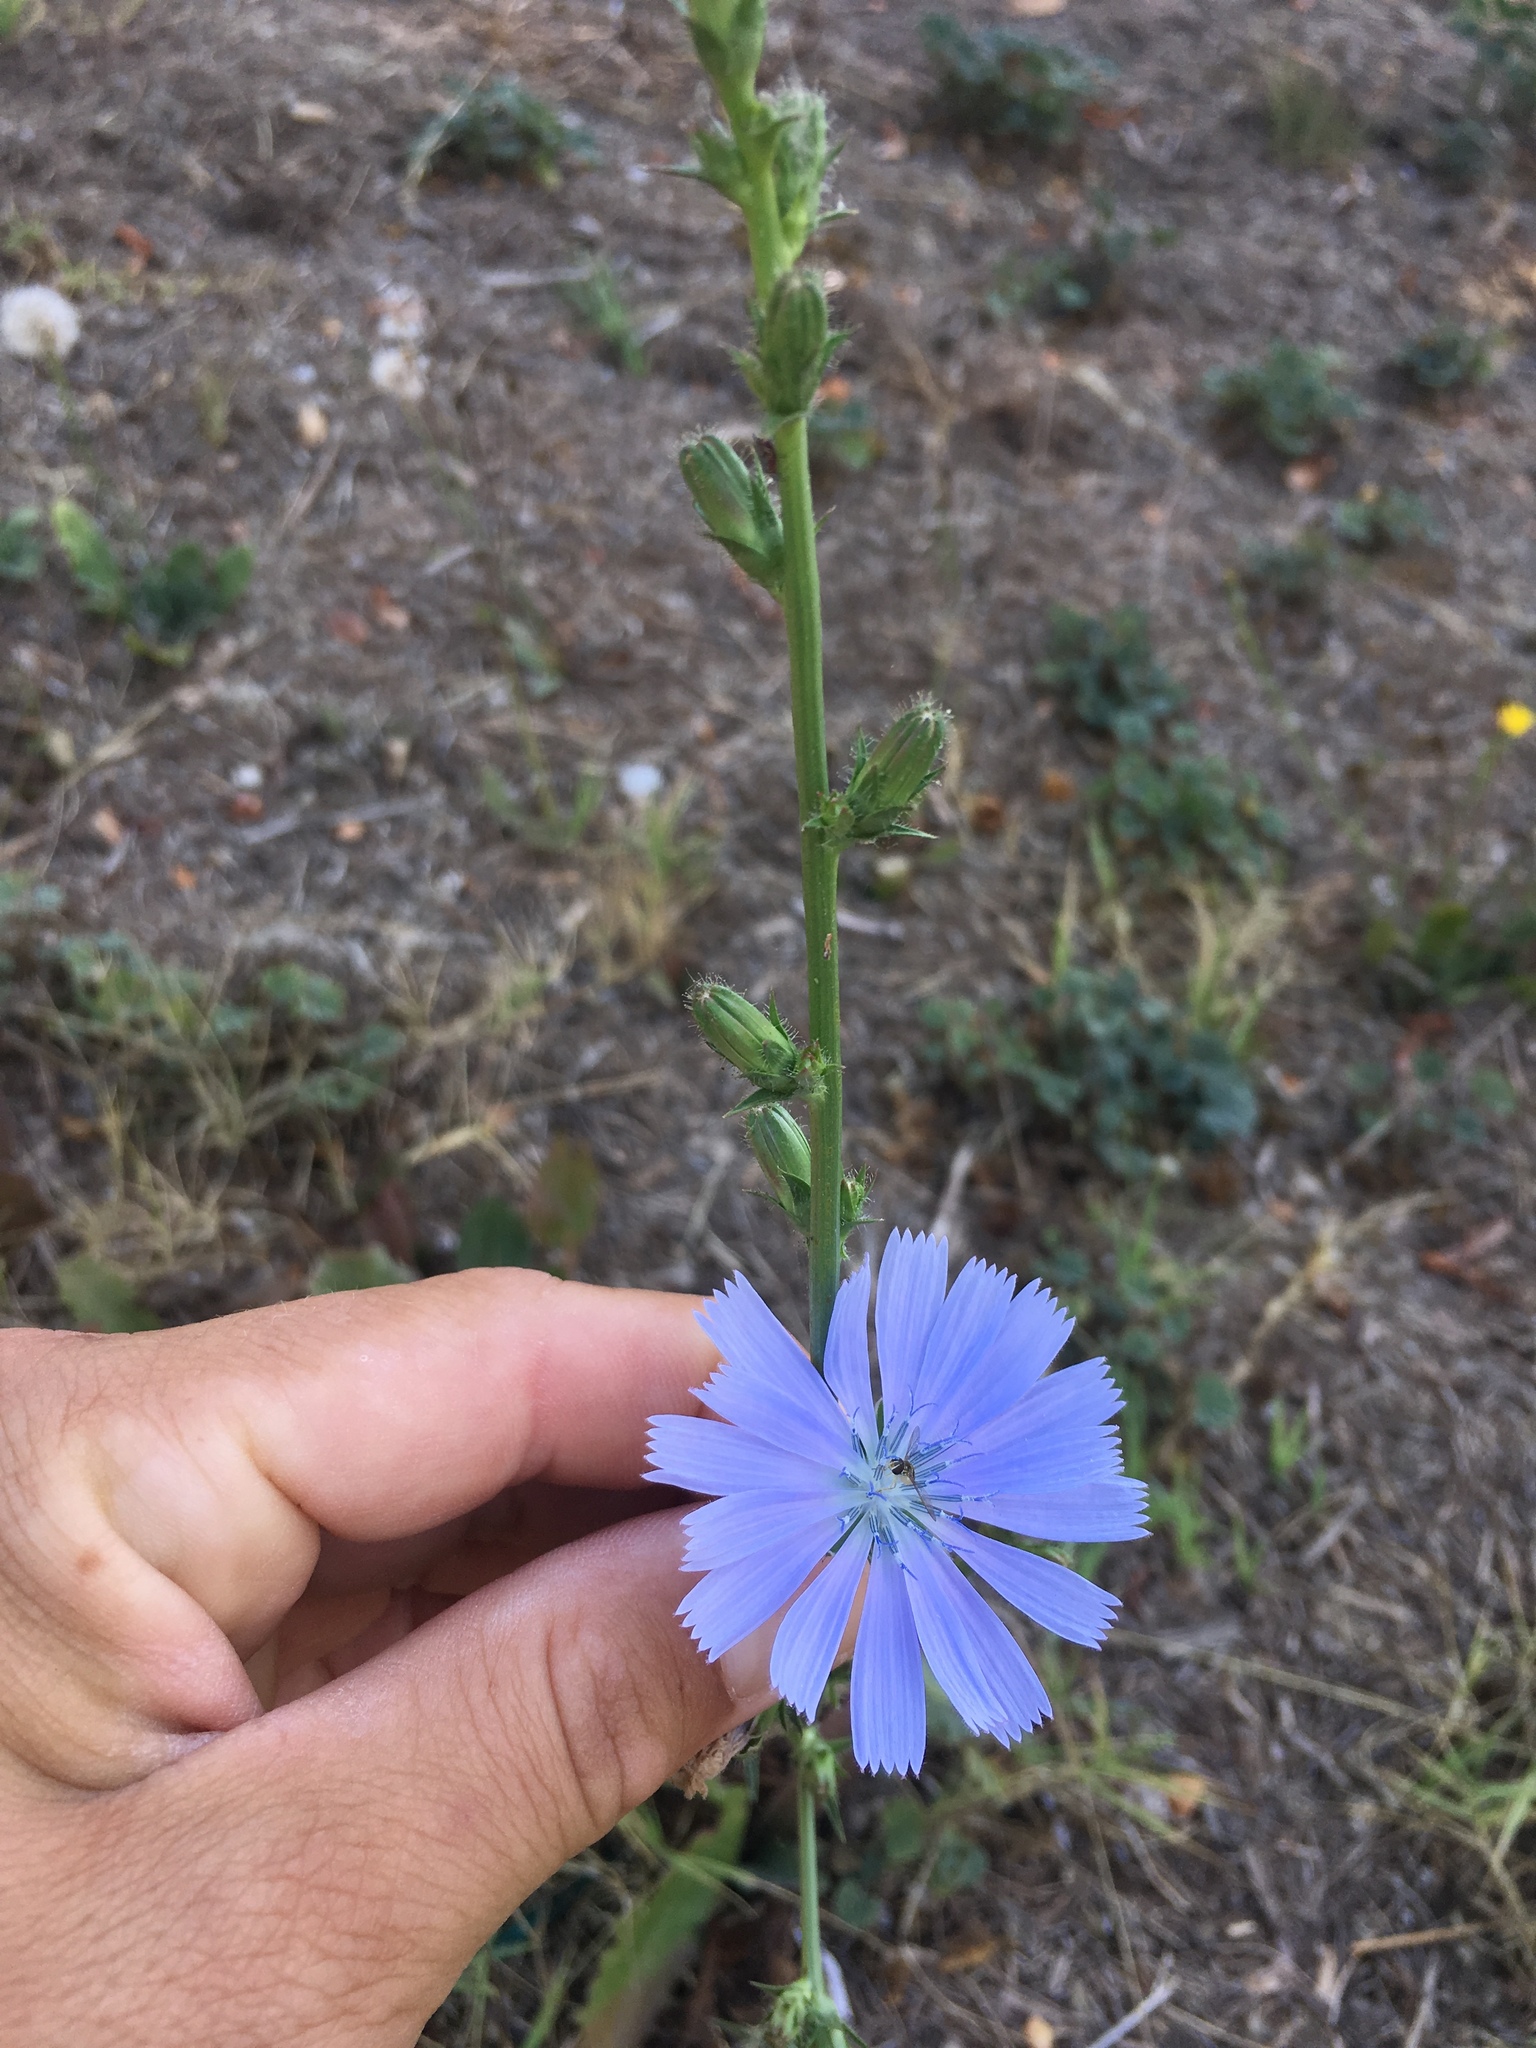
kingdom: Plantae
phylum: Tracheophyta
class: Magnoliopsida
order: Asterales
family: Asteraceae
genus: Cichorium
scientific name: Cichorium intybus
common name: Chicory
